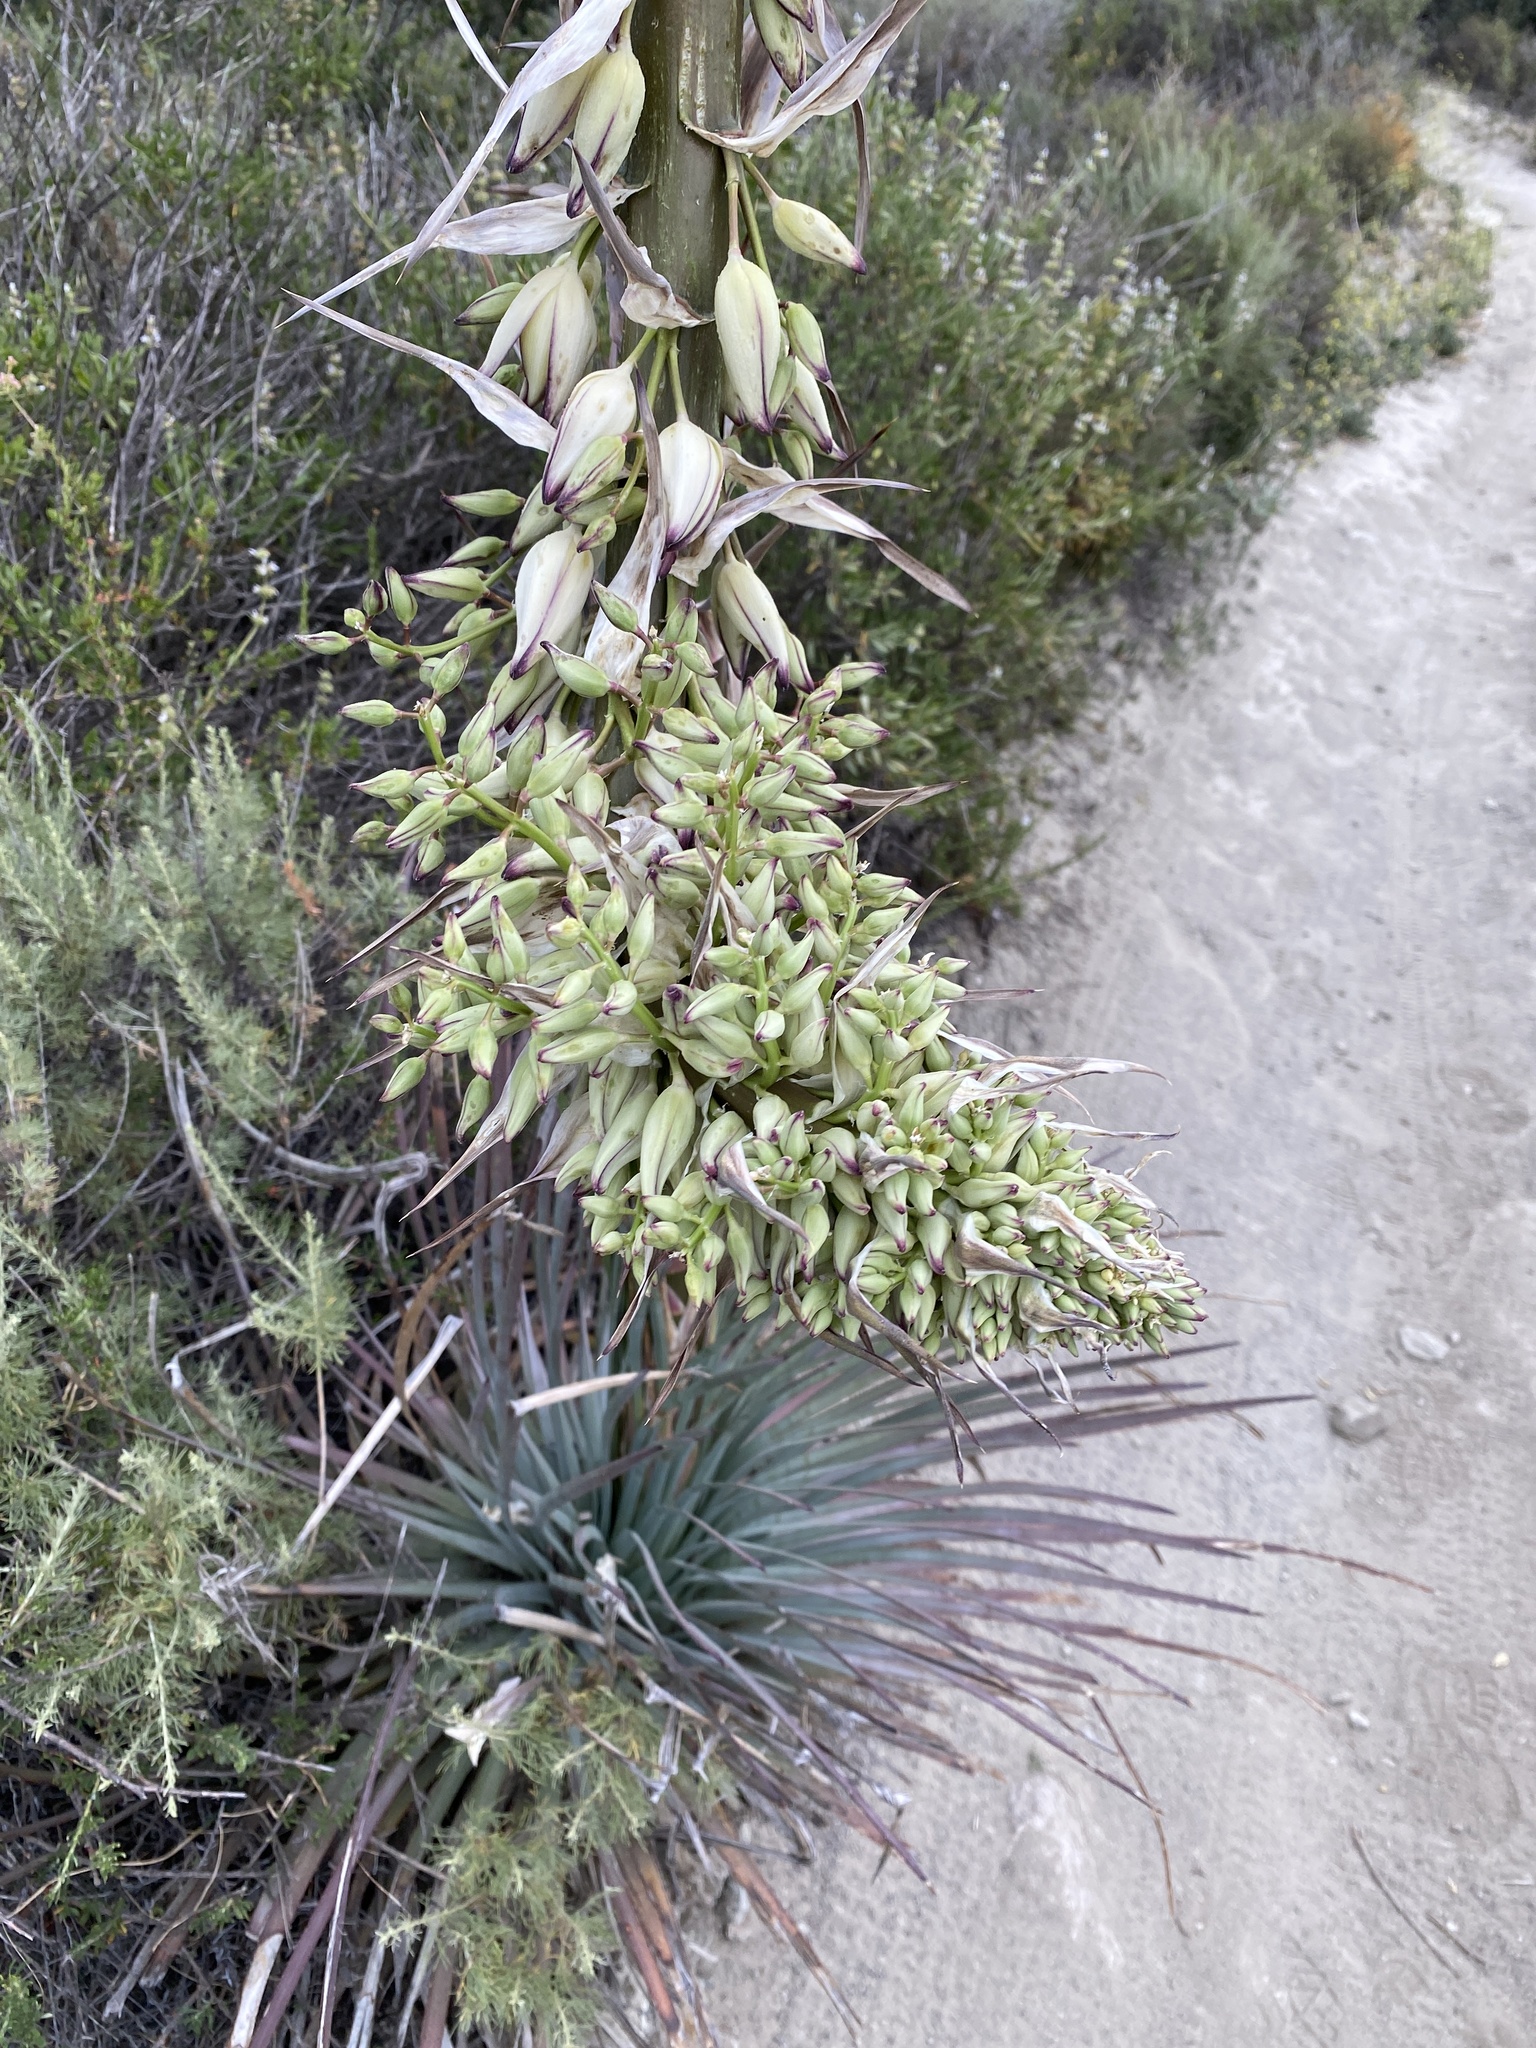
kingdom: Plantae
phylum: Tracheophyta
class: Liliopsida
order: Asparagales
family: Asparagaceae
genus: Hesperoyucca
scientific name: Hesperoyucca whipplei
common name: Our lord's-candle
